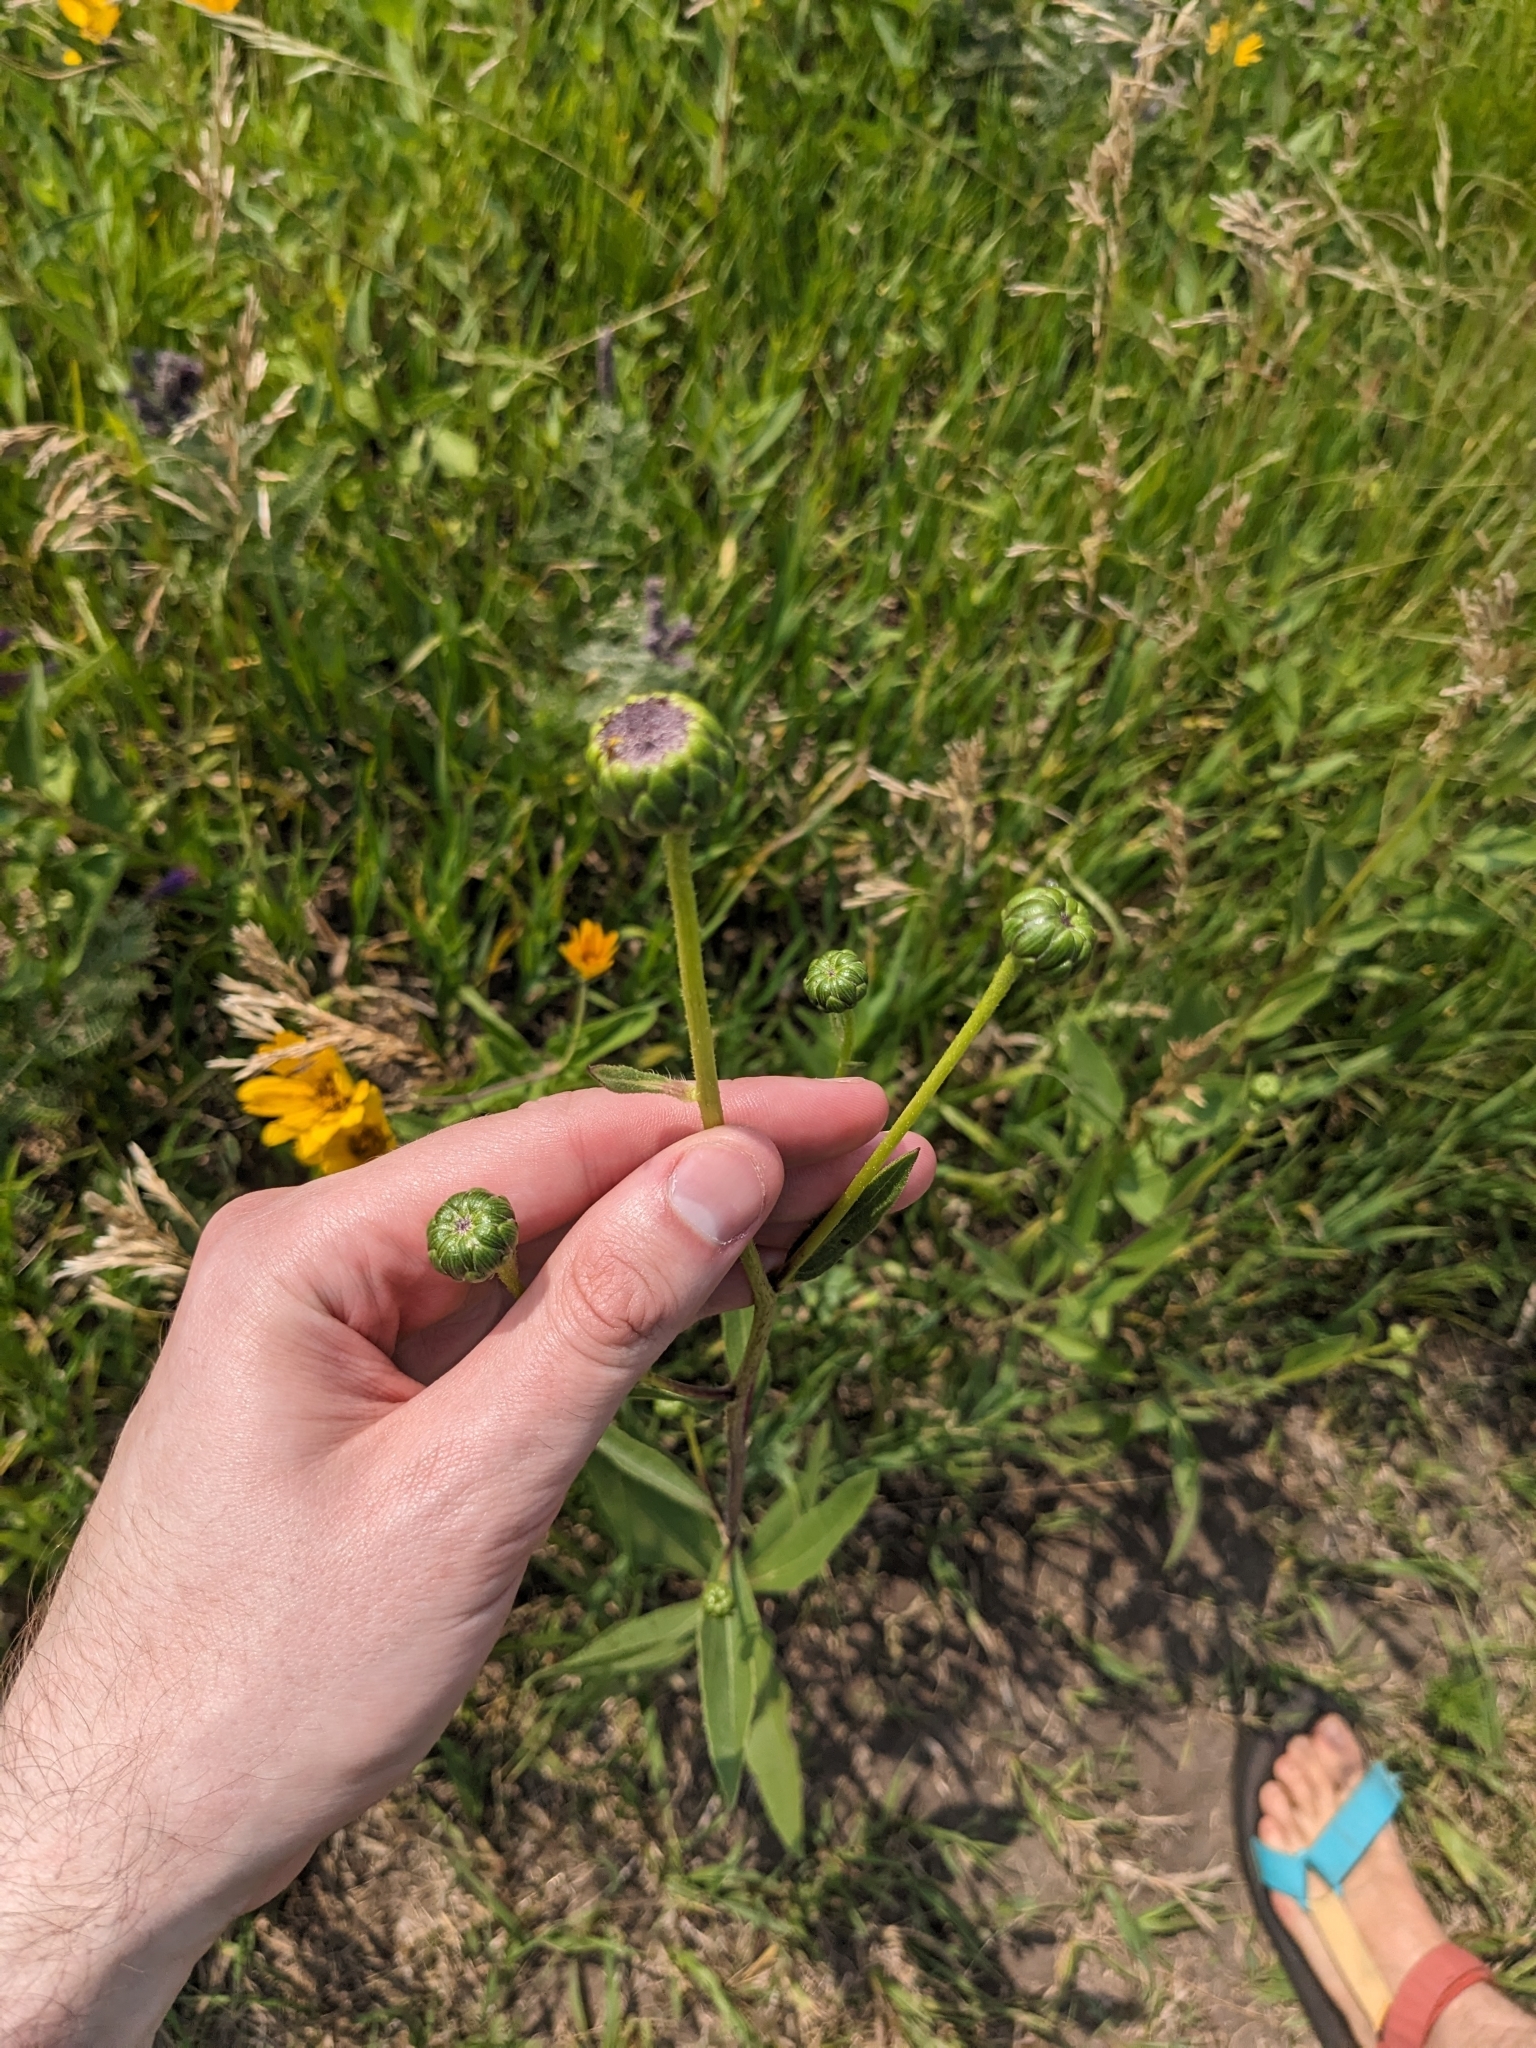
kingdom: Plantae
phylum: Tracheophyta
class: Magnoliopsida
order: Asterales
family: Asteraceae
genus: Helianthus
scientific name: Helianthus pauciflorus
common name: Stiff sunflower
